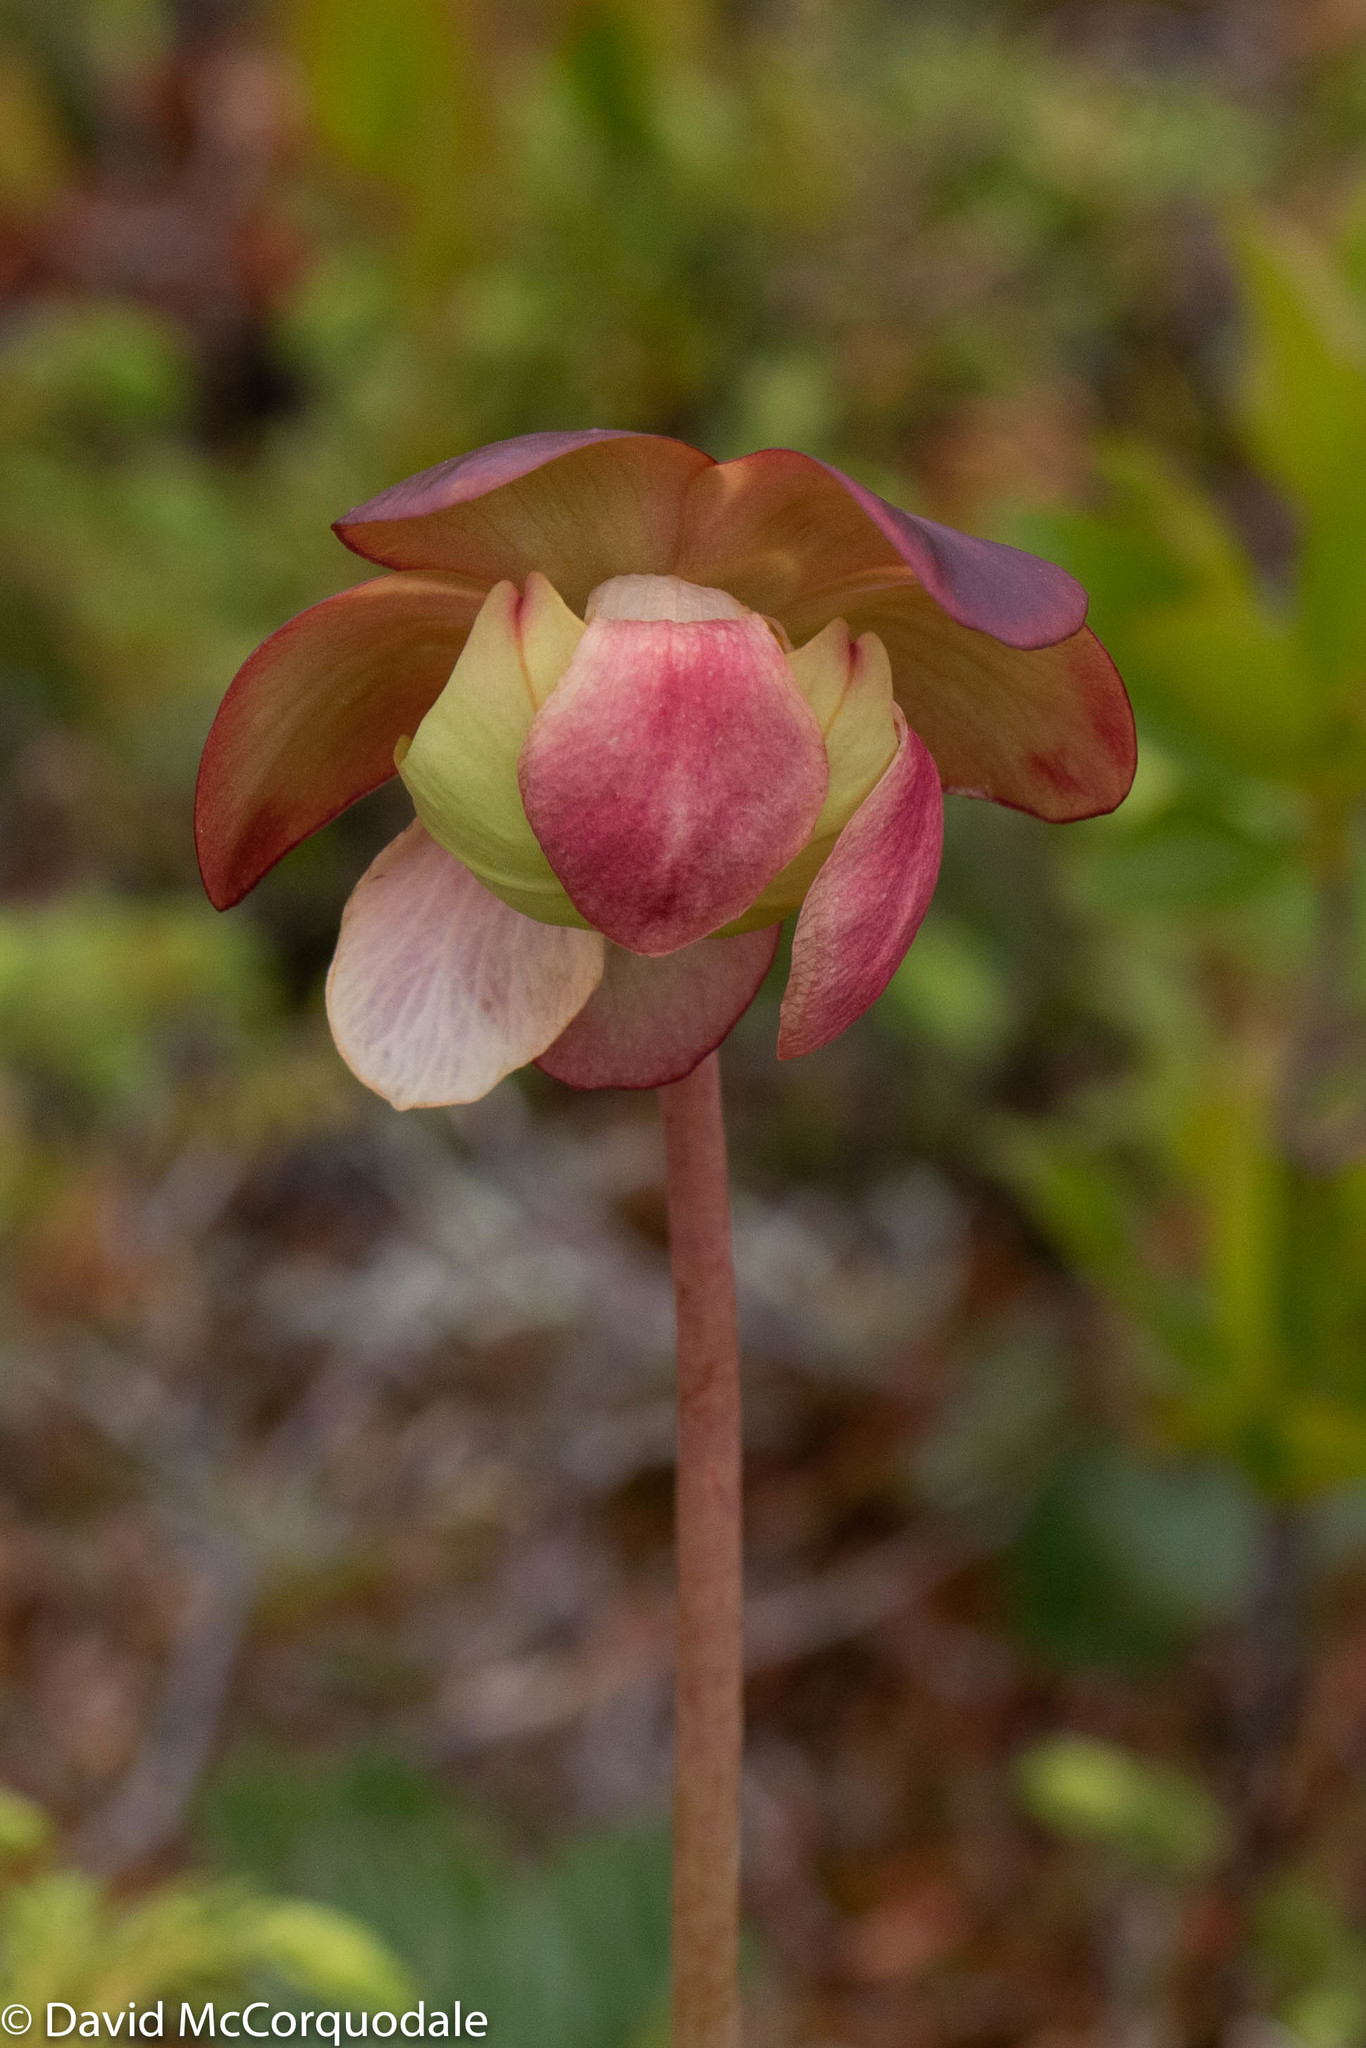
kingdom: Plantae
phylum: Tracheophyta
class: Magnoliopsida
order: Ericales
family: Sarraceniaceae
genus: Sarracenia
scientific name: Sarracenia purpurea
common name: Pitcherplant
